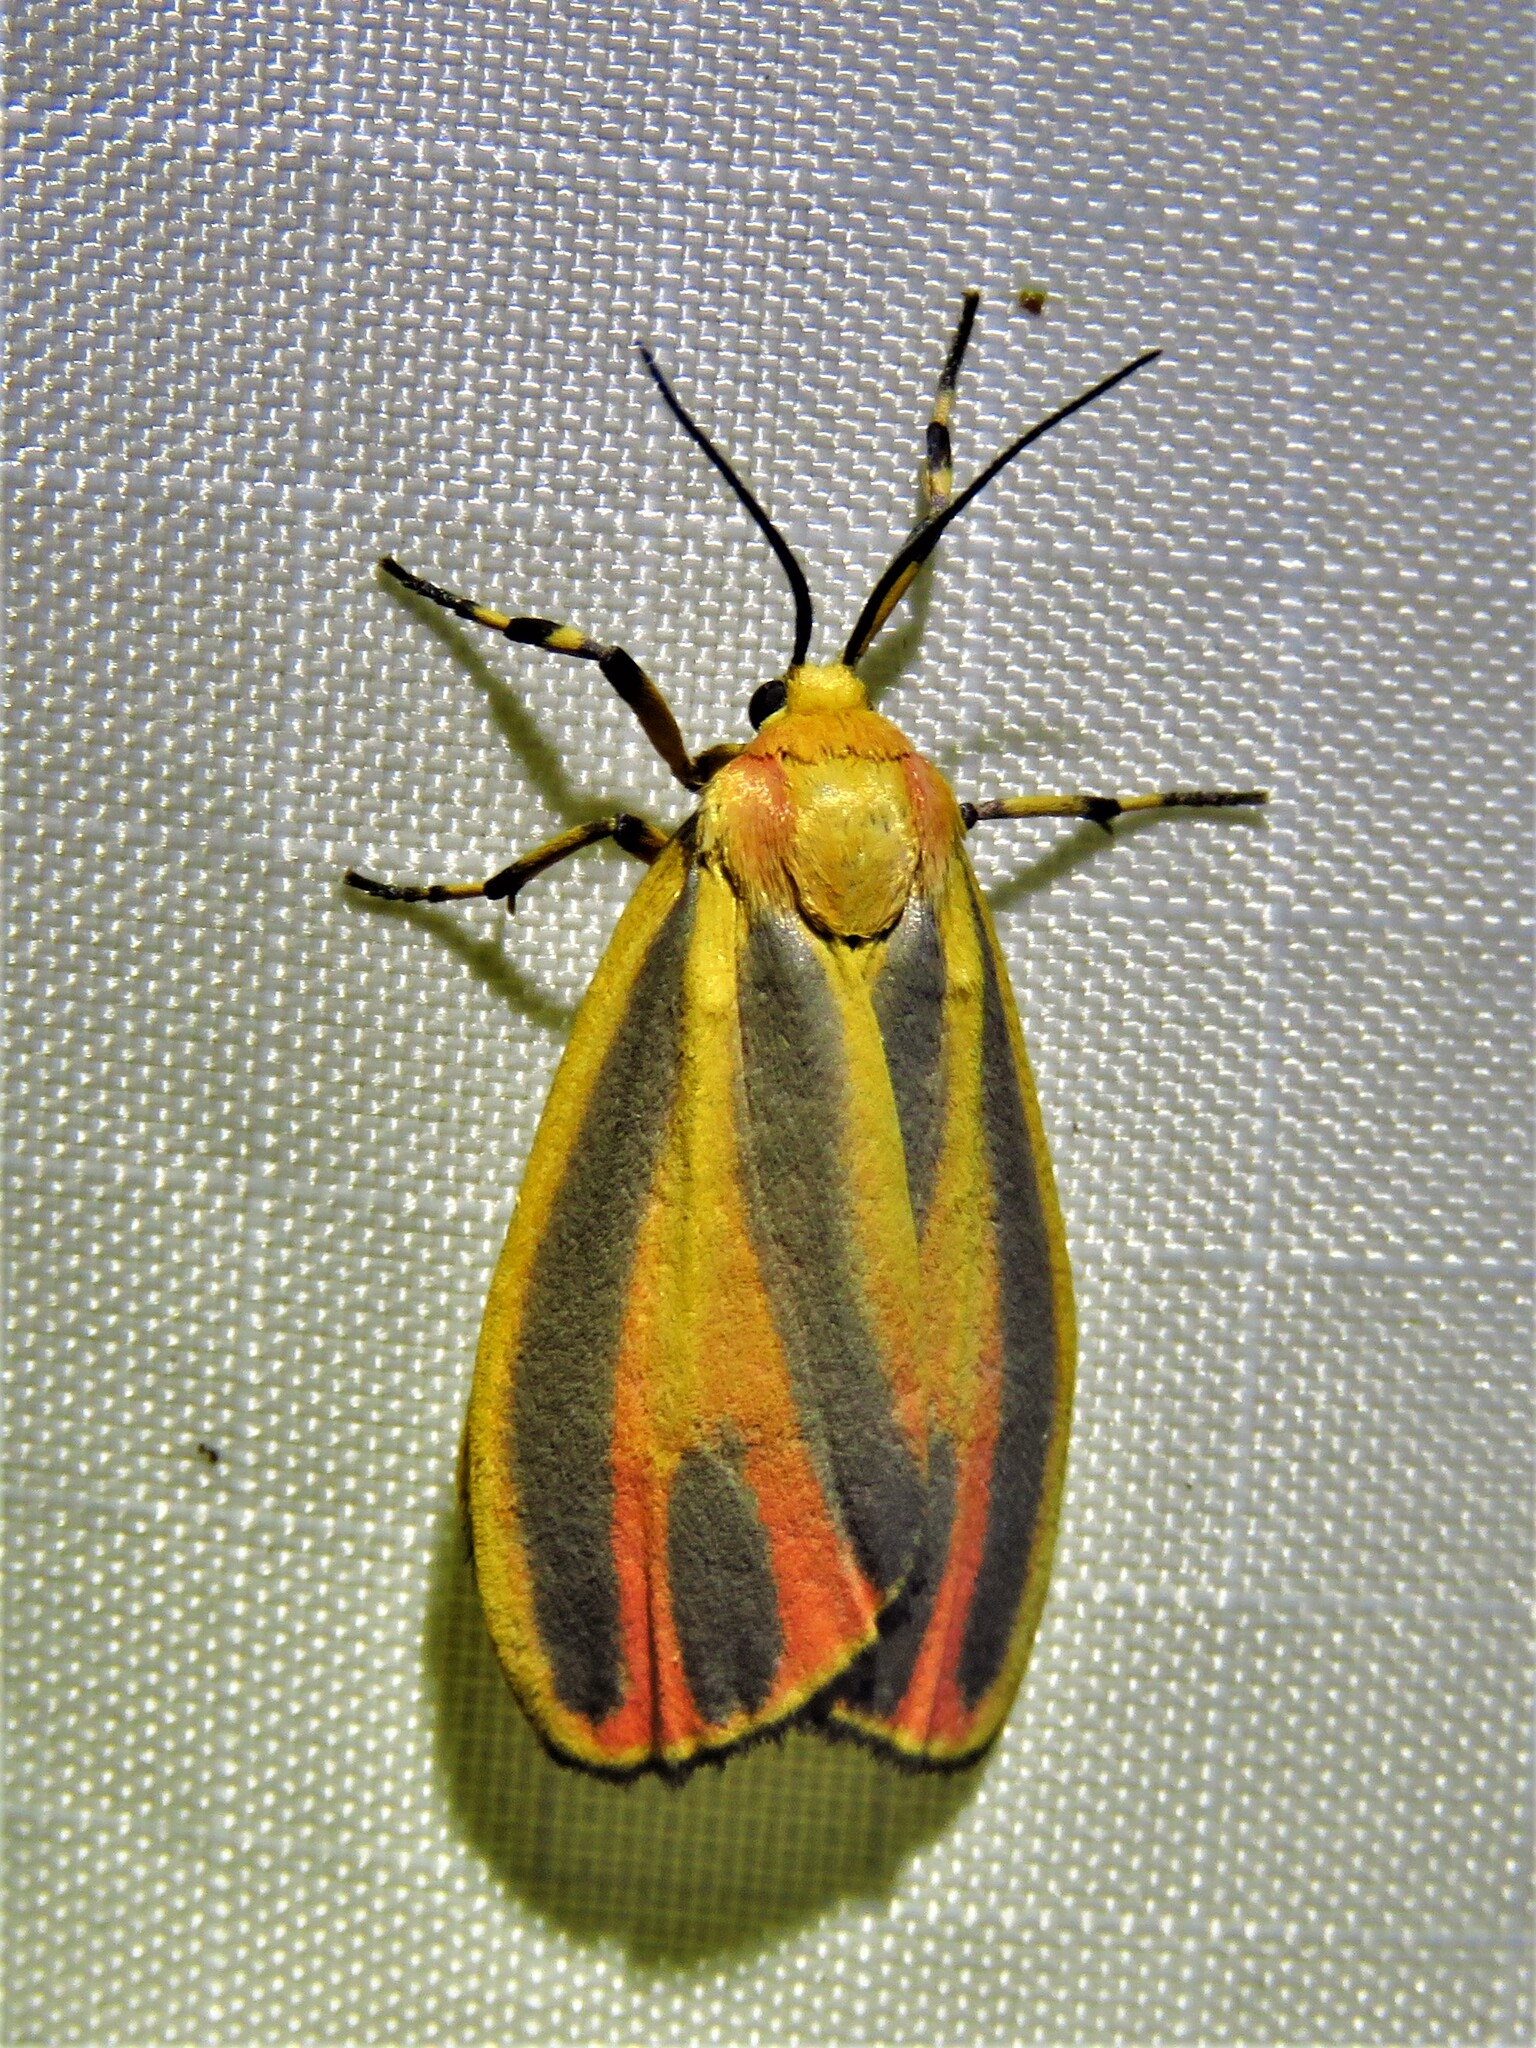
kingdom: Animalia
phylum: Arthropoda
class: Insecta
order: Lepidoptera
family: Erebidae
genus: Hypoprepia
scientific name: Hypoprepia fucosa
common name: Painted lichen moth
